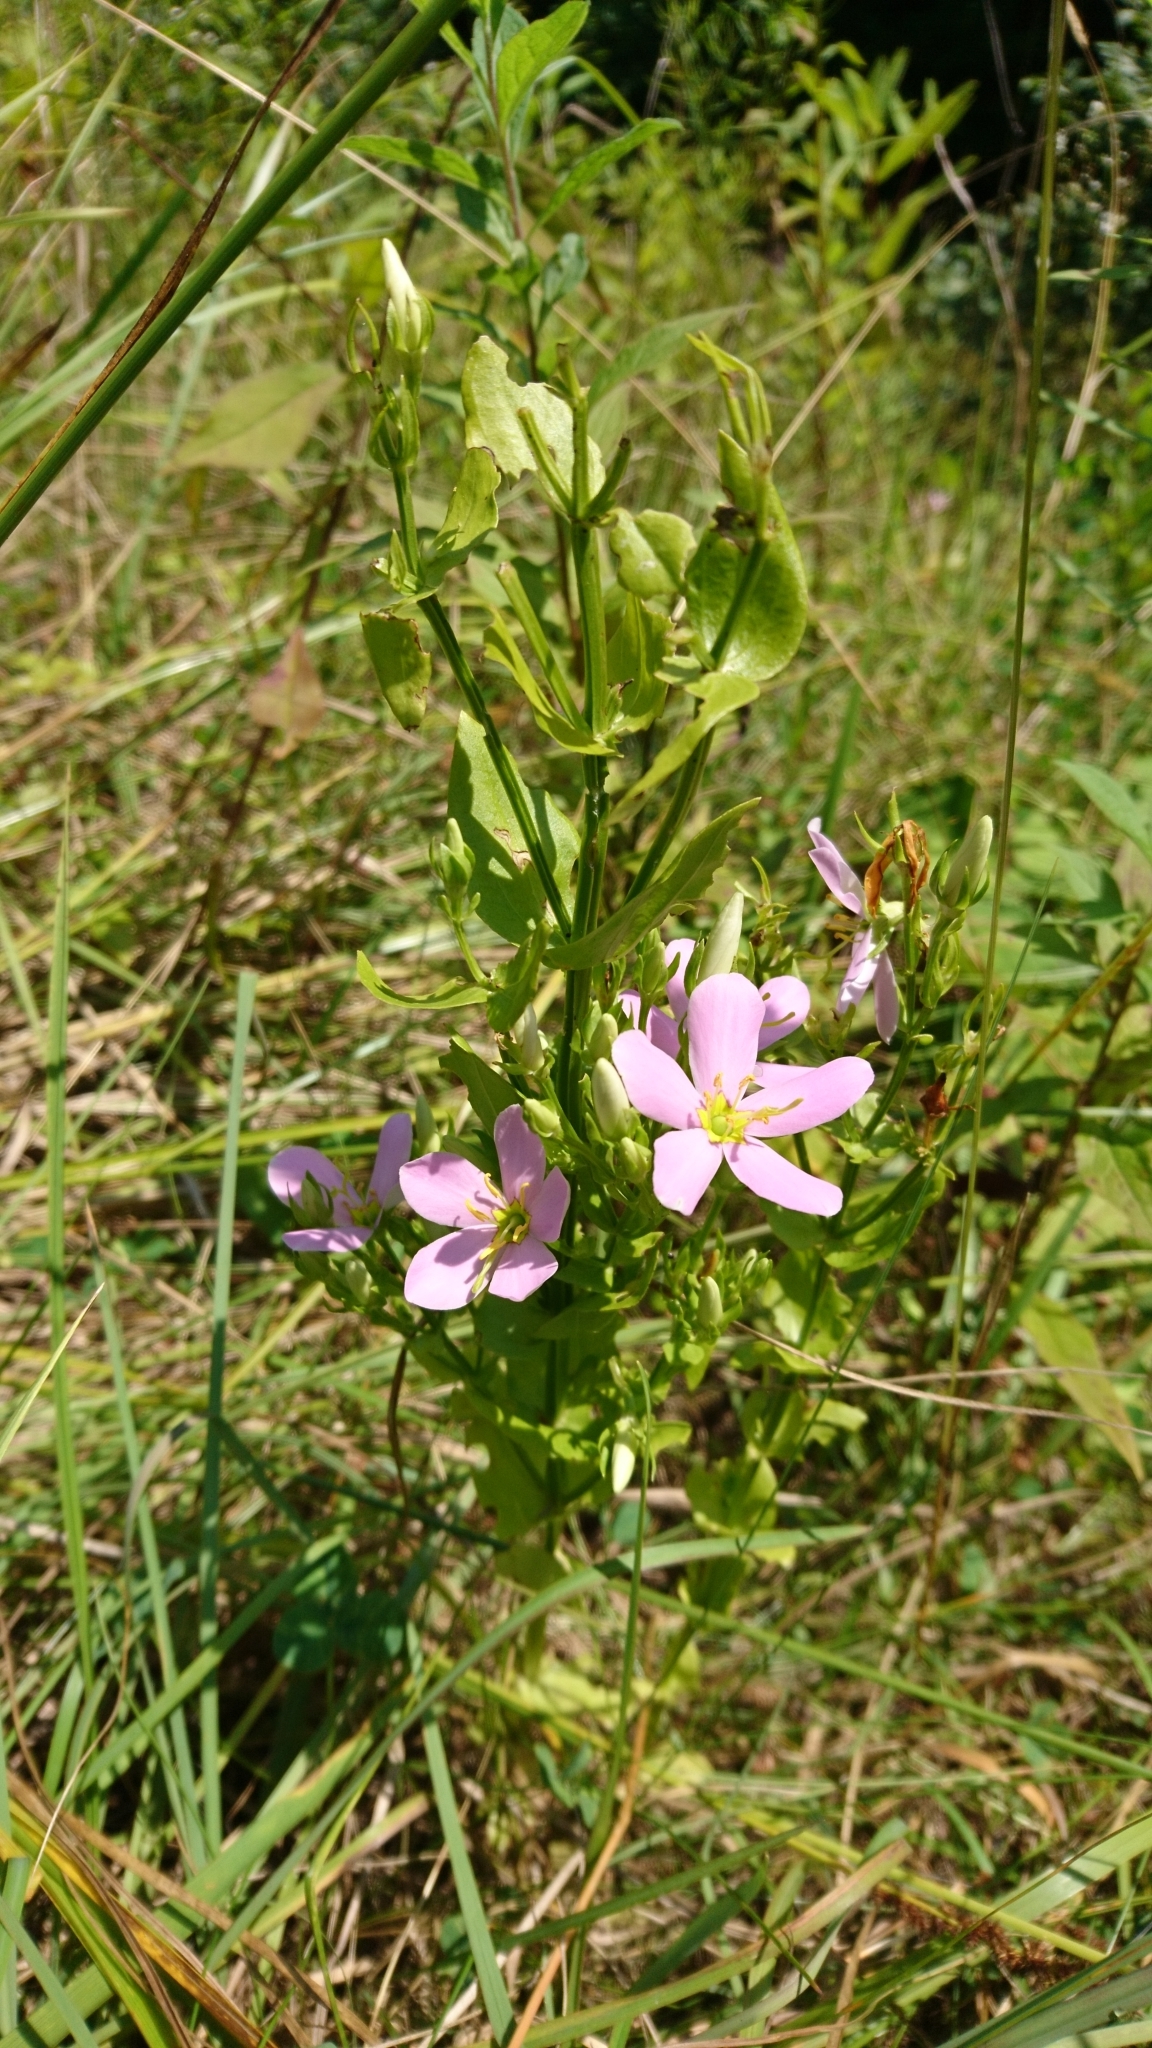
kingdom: Plantae
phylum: Tracheophyta
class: Magnoliopsida
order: Gentianales
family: Gentianaceae
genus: Sabatia
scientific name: Sabatia angularis
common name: Rose-pink
